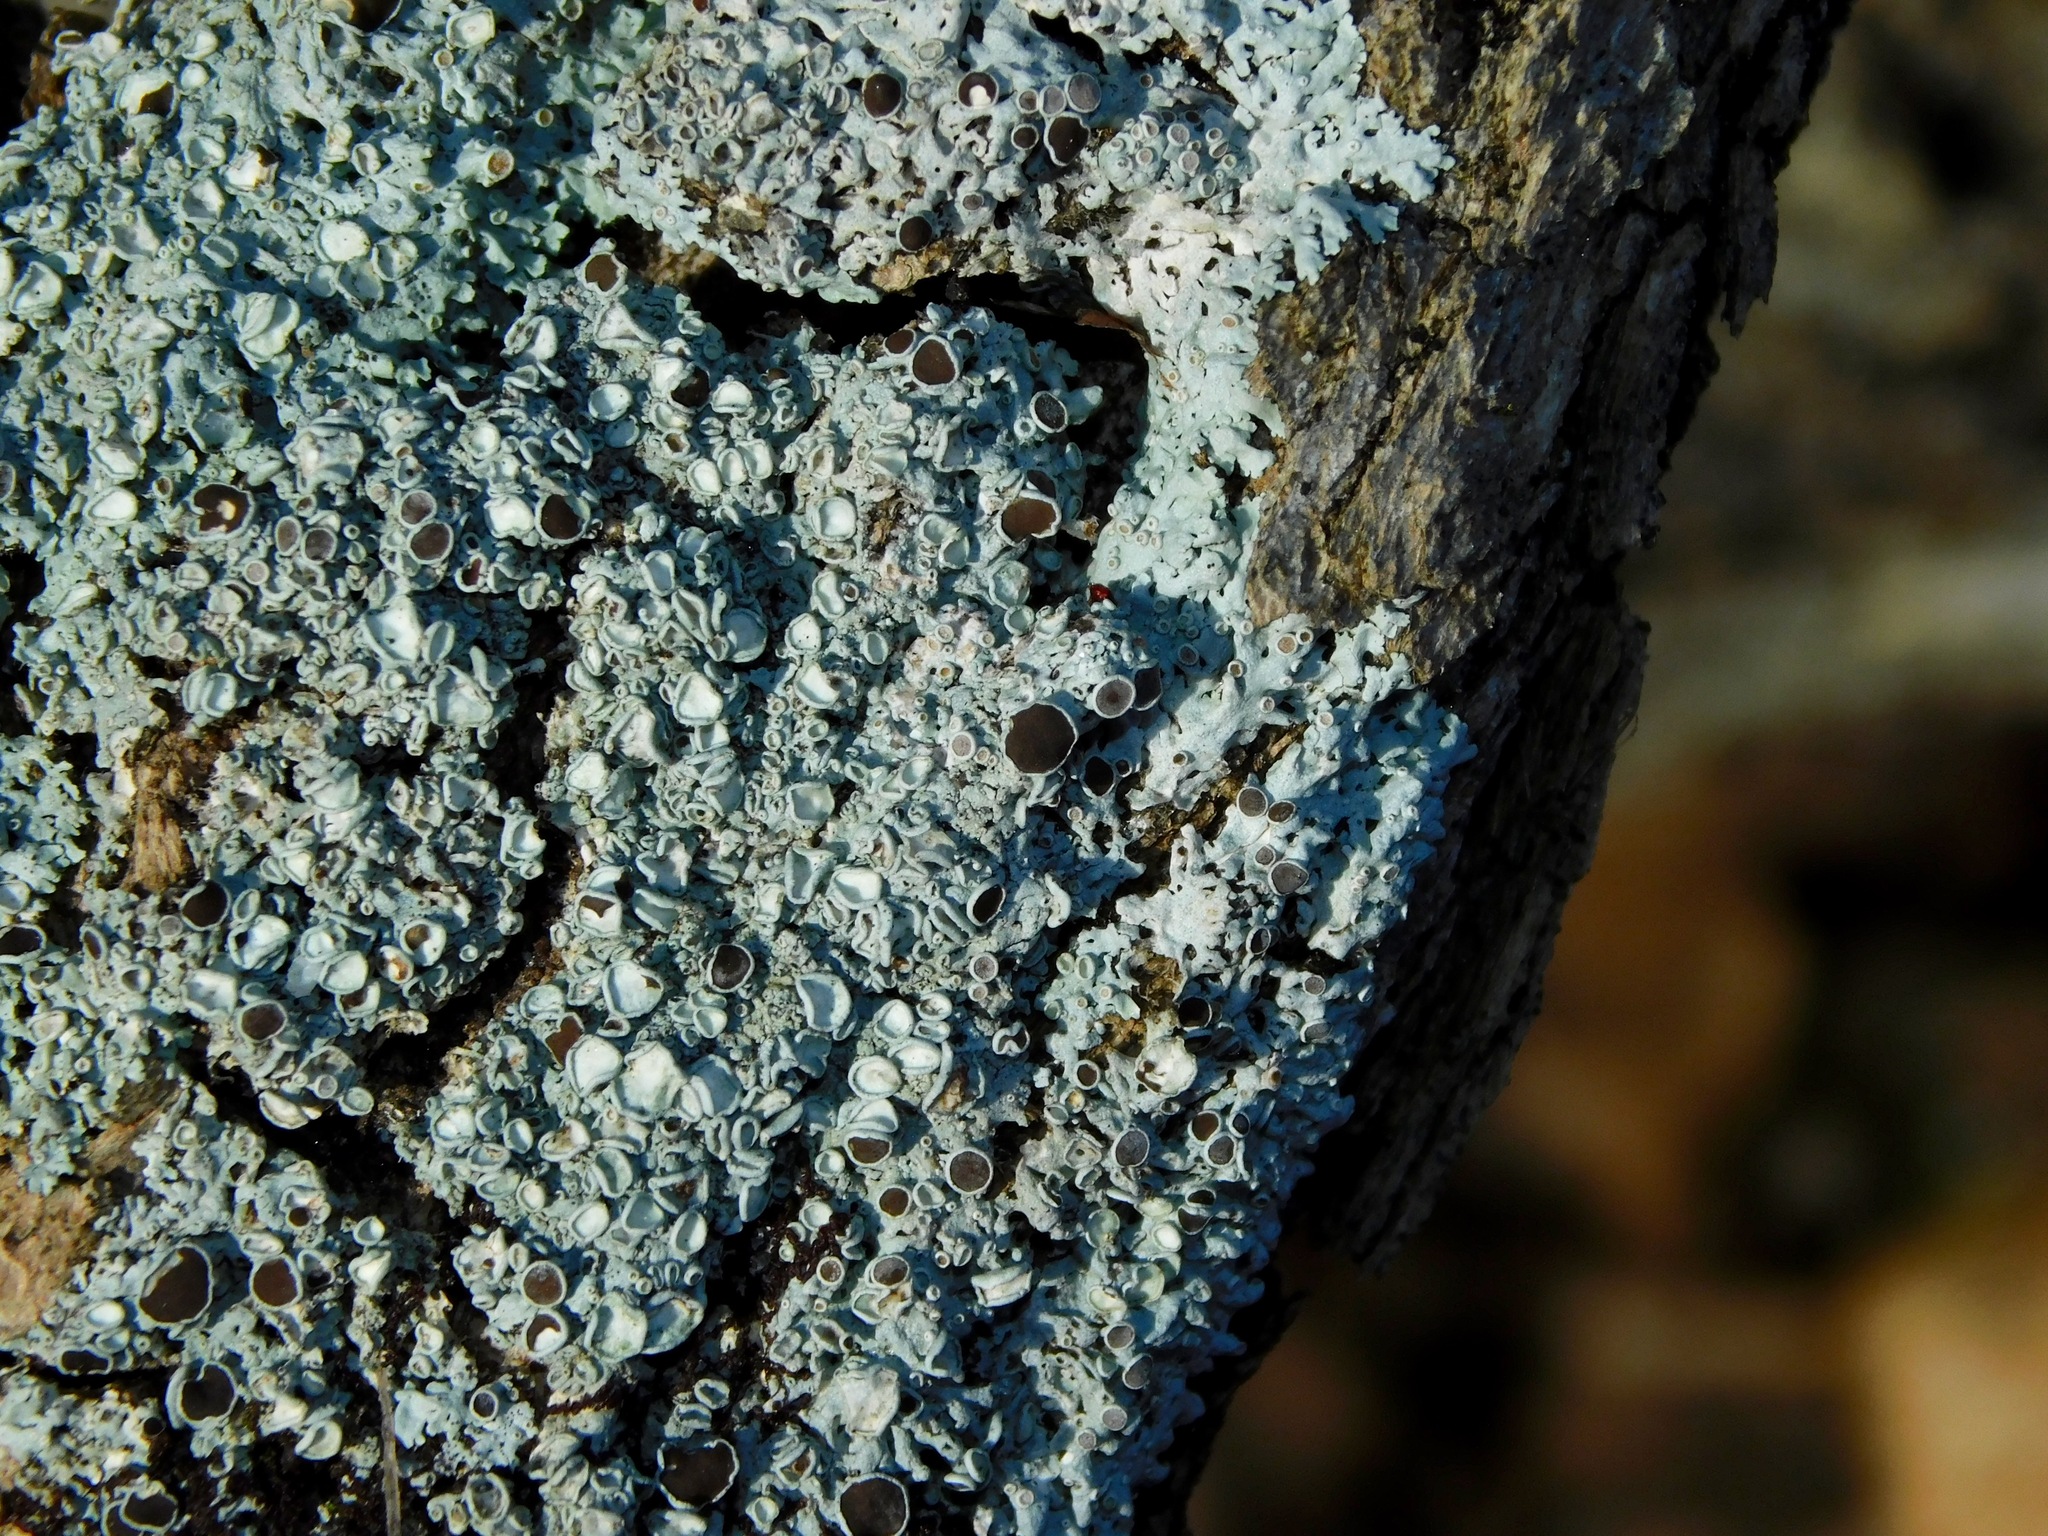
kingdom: Fungi
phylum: Ascomycota
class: Lecanoromycetes
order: Caliciales
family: Physciaceae
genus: Physcia
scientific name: Physcia pumilior
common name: Lesser gray legs
